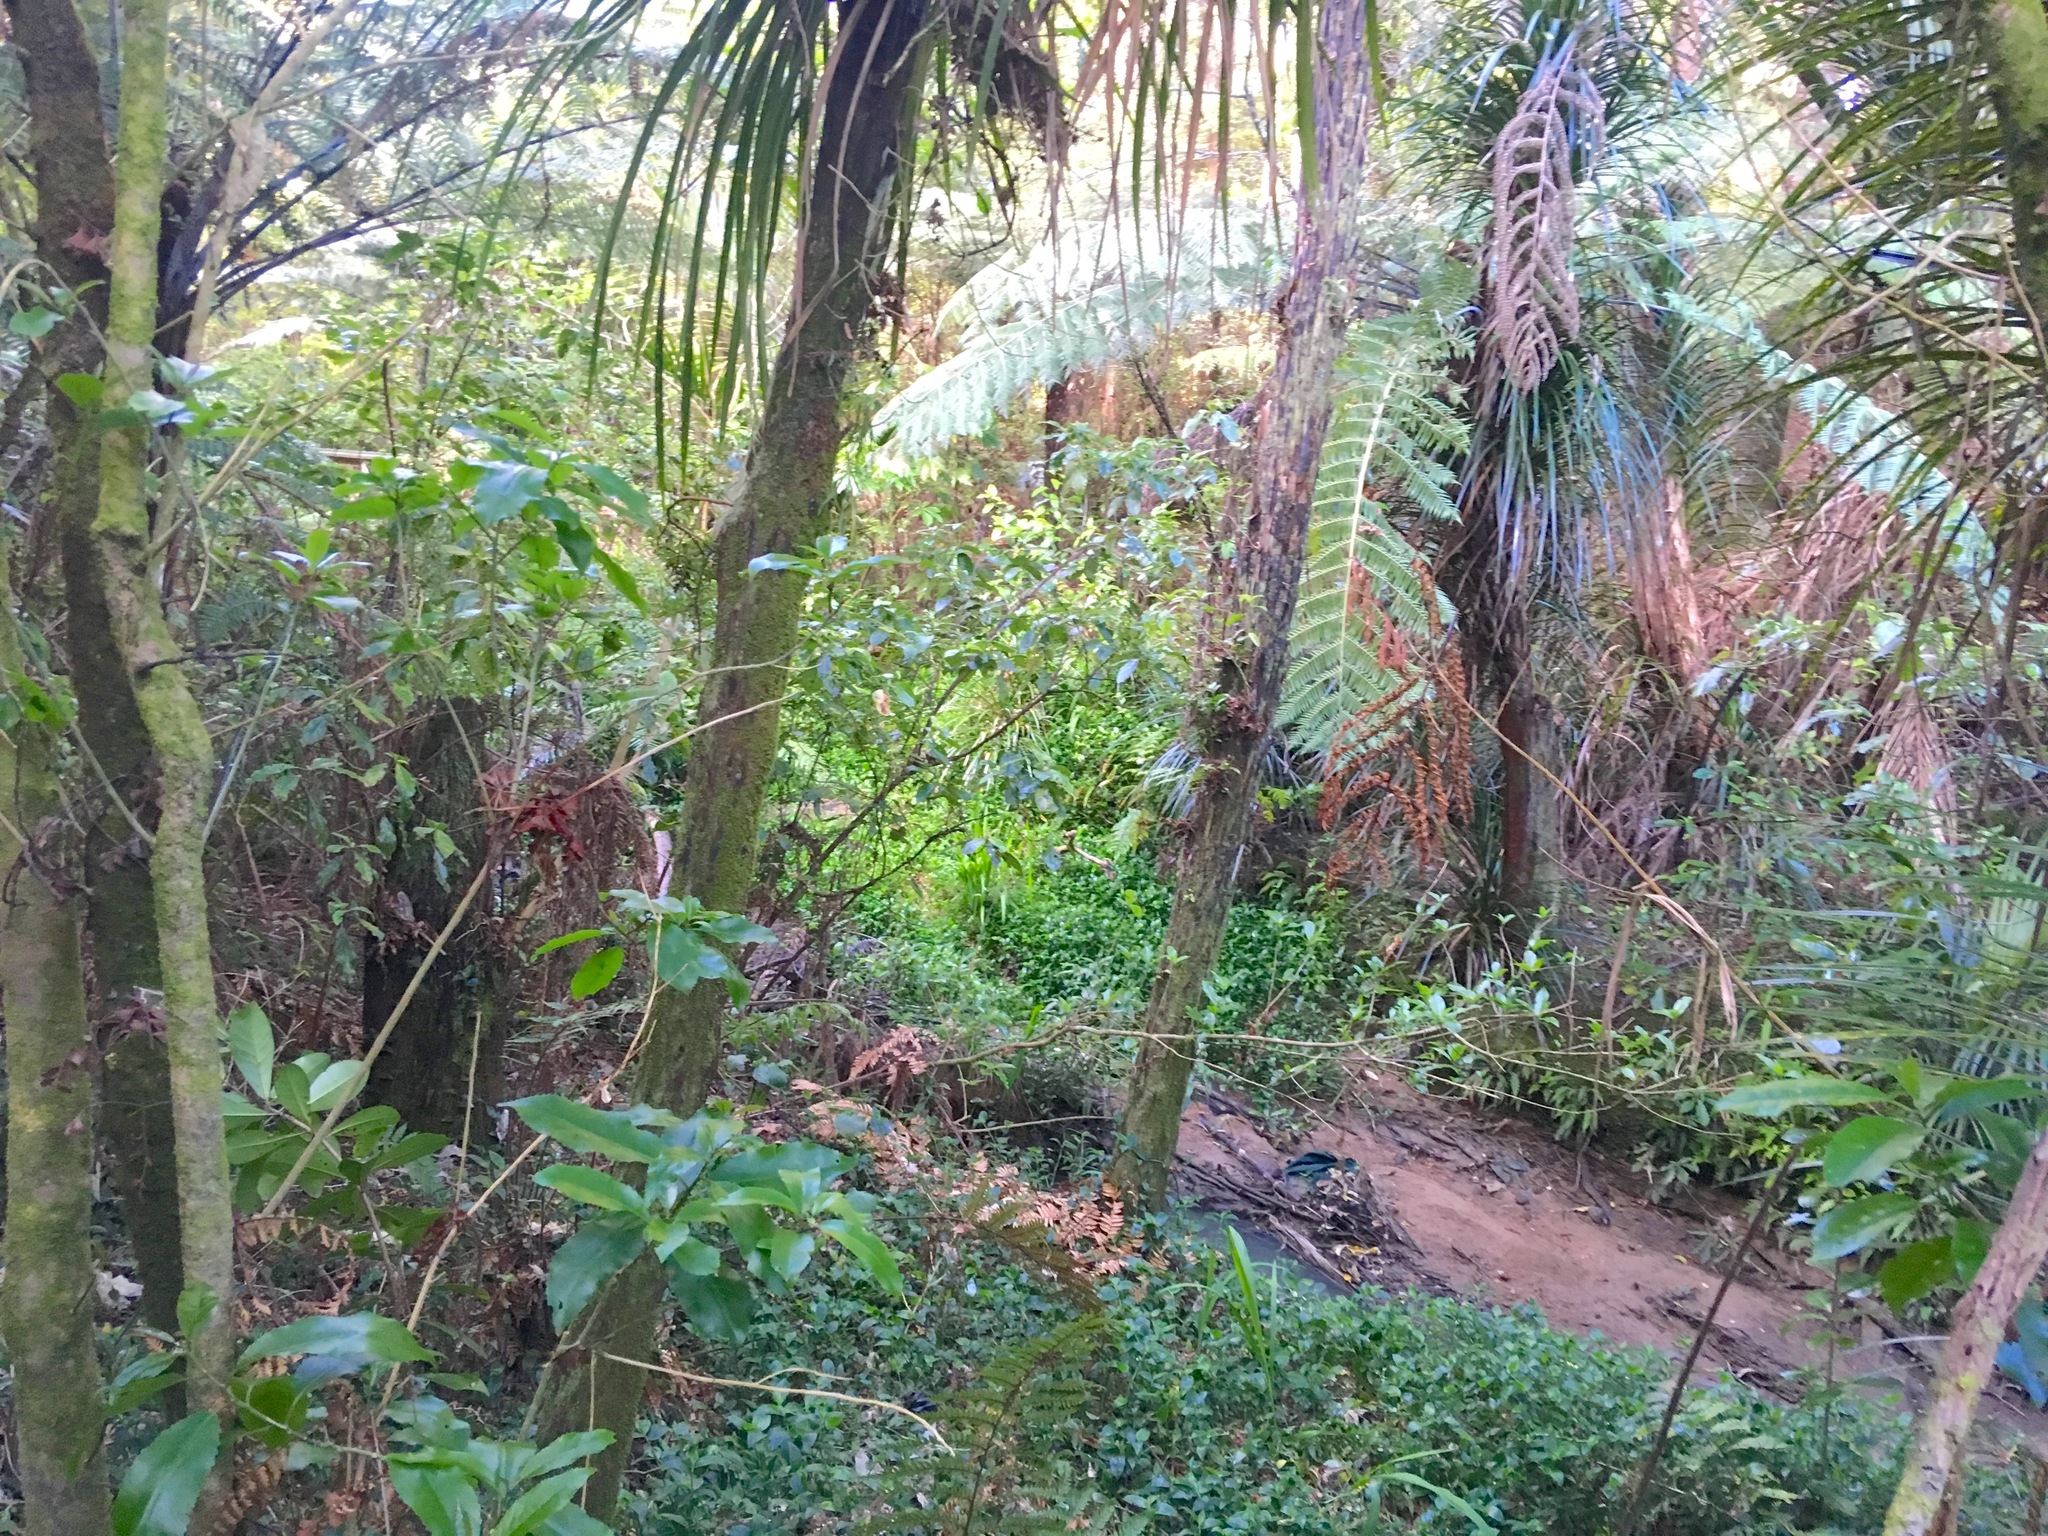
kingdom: Plantae
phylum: Tracheophyta
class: Liliopsida
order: Commelinales
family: Commelinaceae
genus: Tradescantia
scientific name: Tradescantia fluminensis
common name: Wandering-jew
